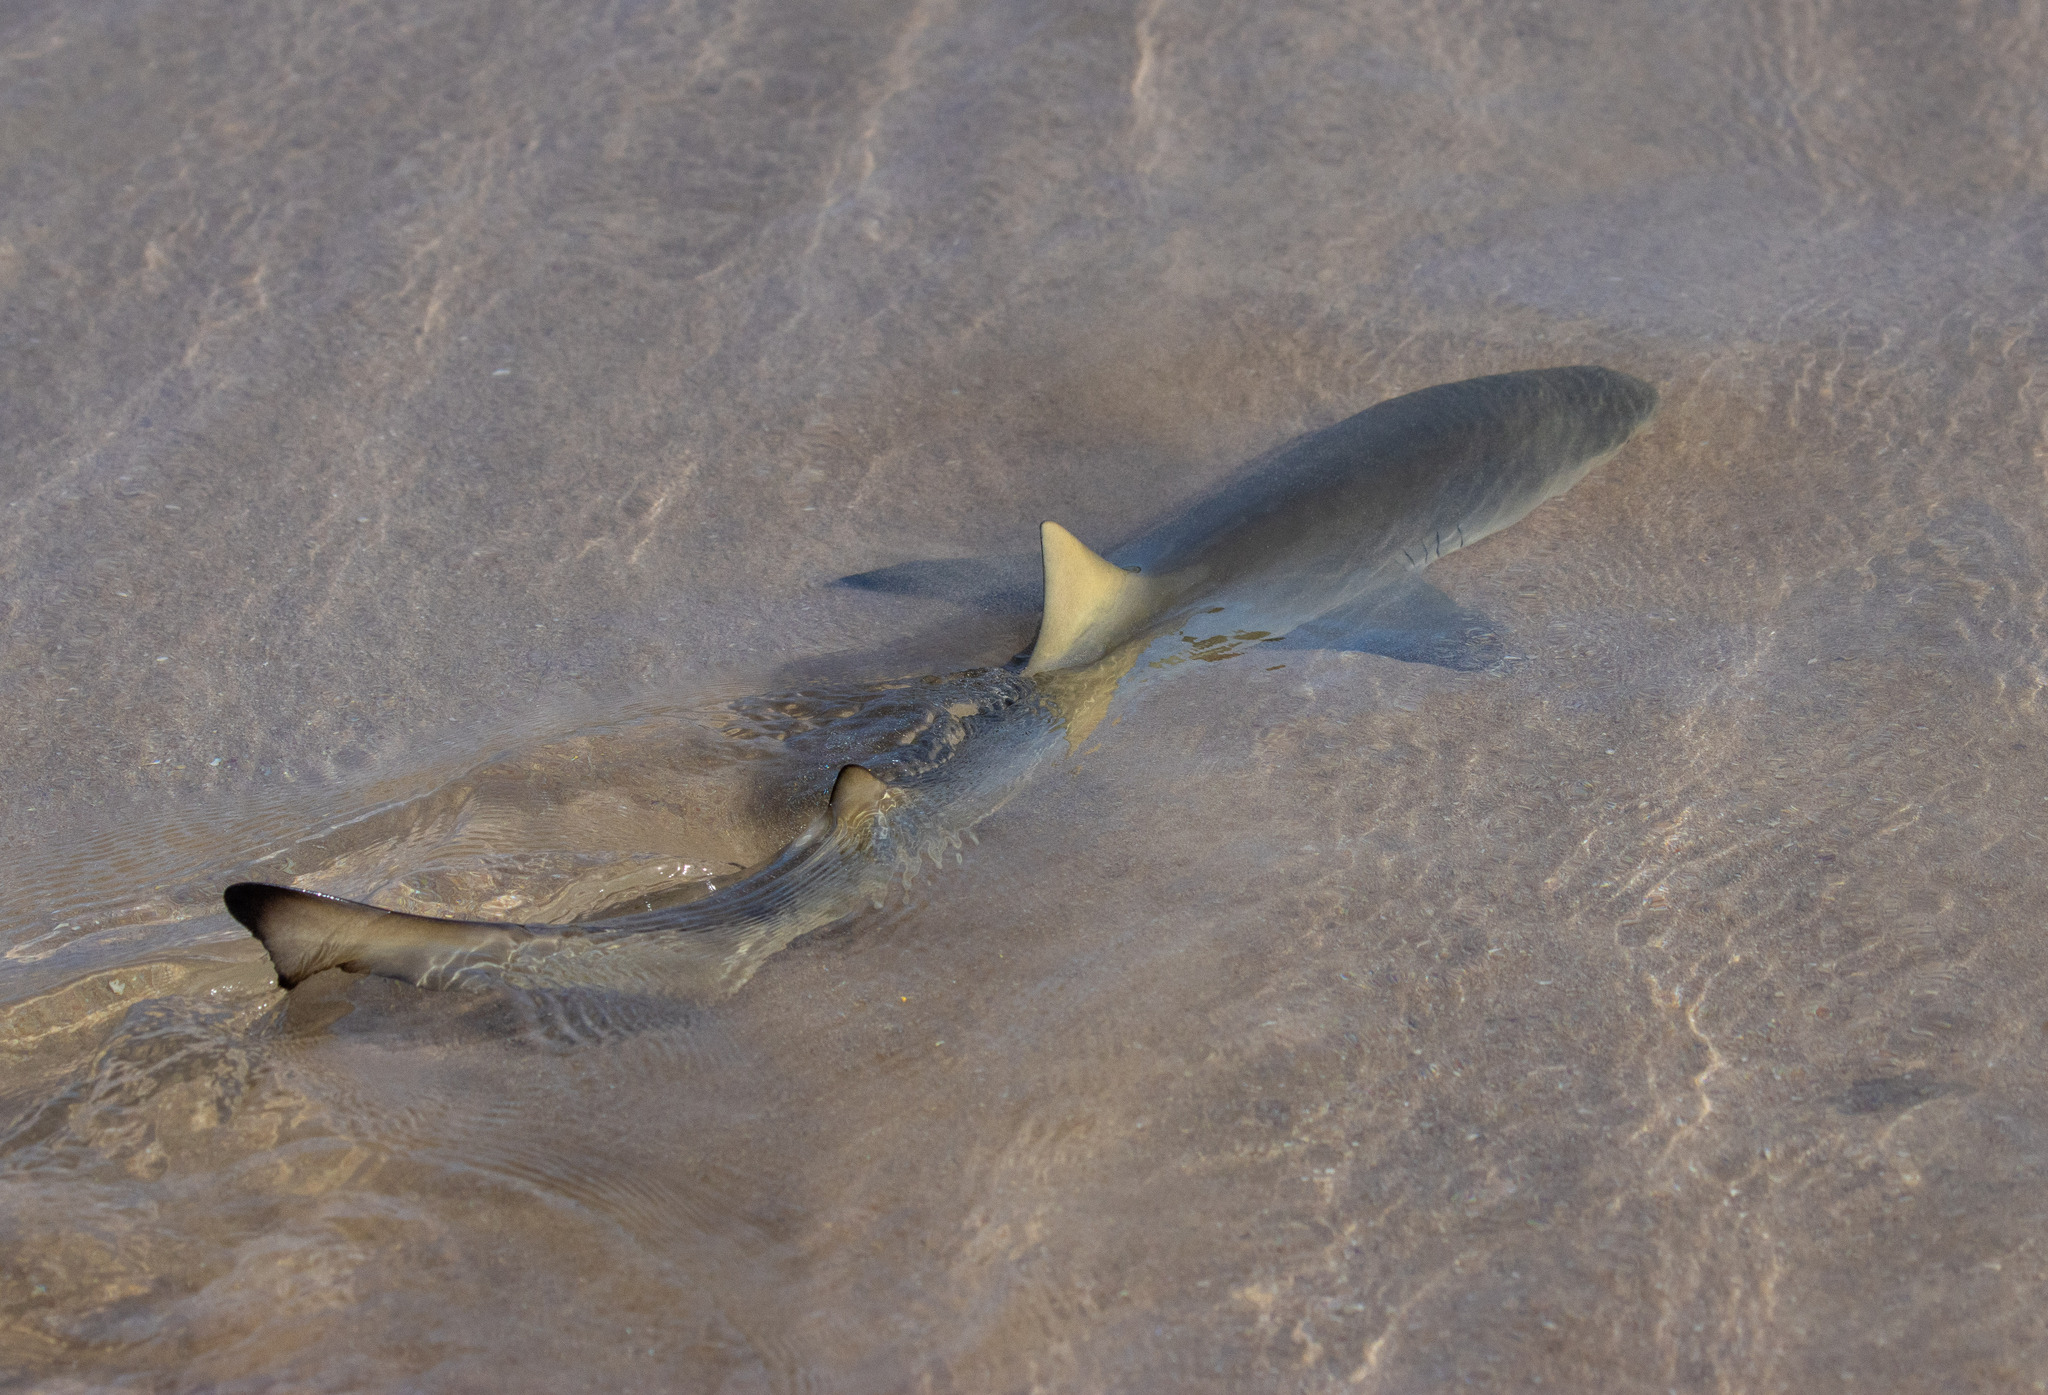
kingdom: Animalia
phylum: Chordata
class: Elasmobranchii
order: Carcharhiniformes
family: Carcharhinidae
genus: Negaprion
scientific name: Negaprion brevirostris
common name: Lemon shark
